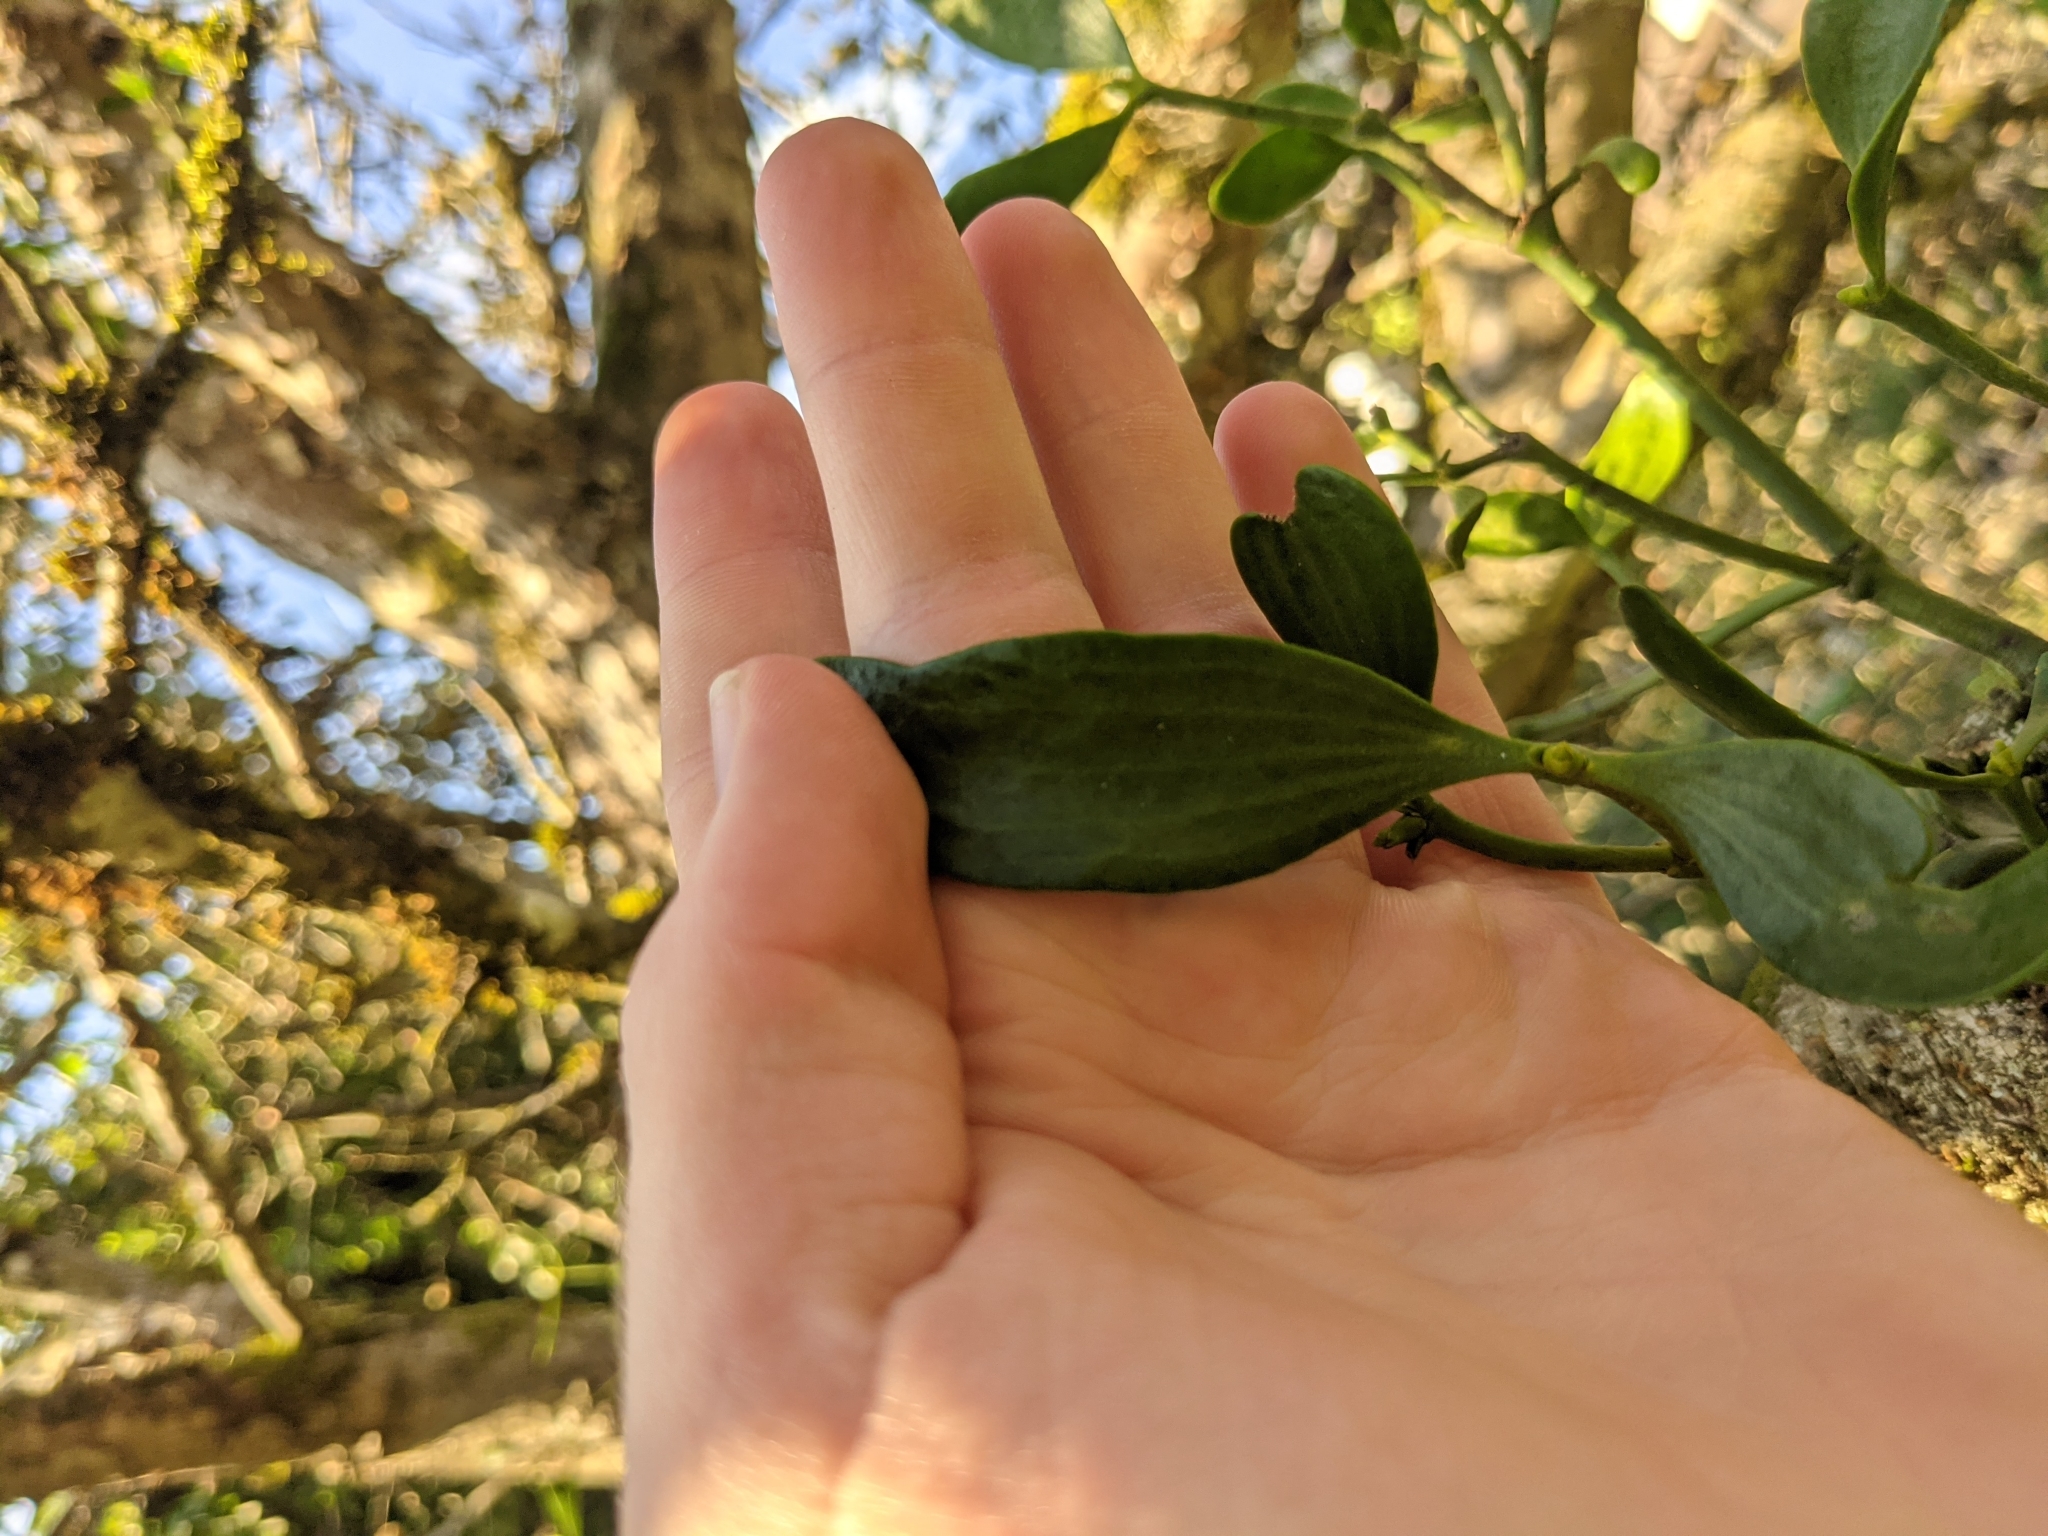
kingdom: Plantae
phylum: Tracheophyta
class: Magnoliopsida
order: Santalales
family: Viscaceae
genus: Viscum
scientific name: Viscum album
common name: Mistletoe
